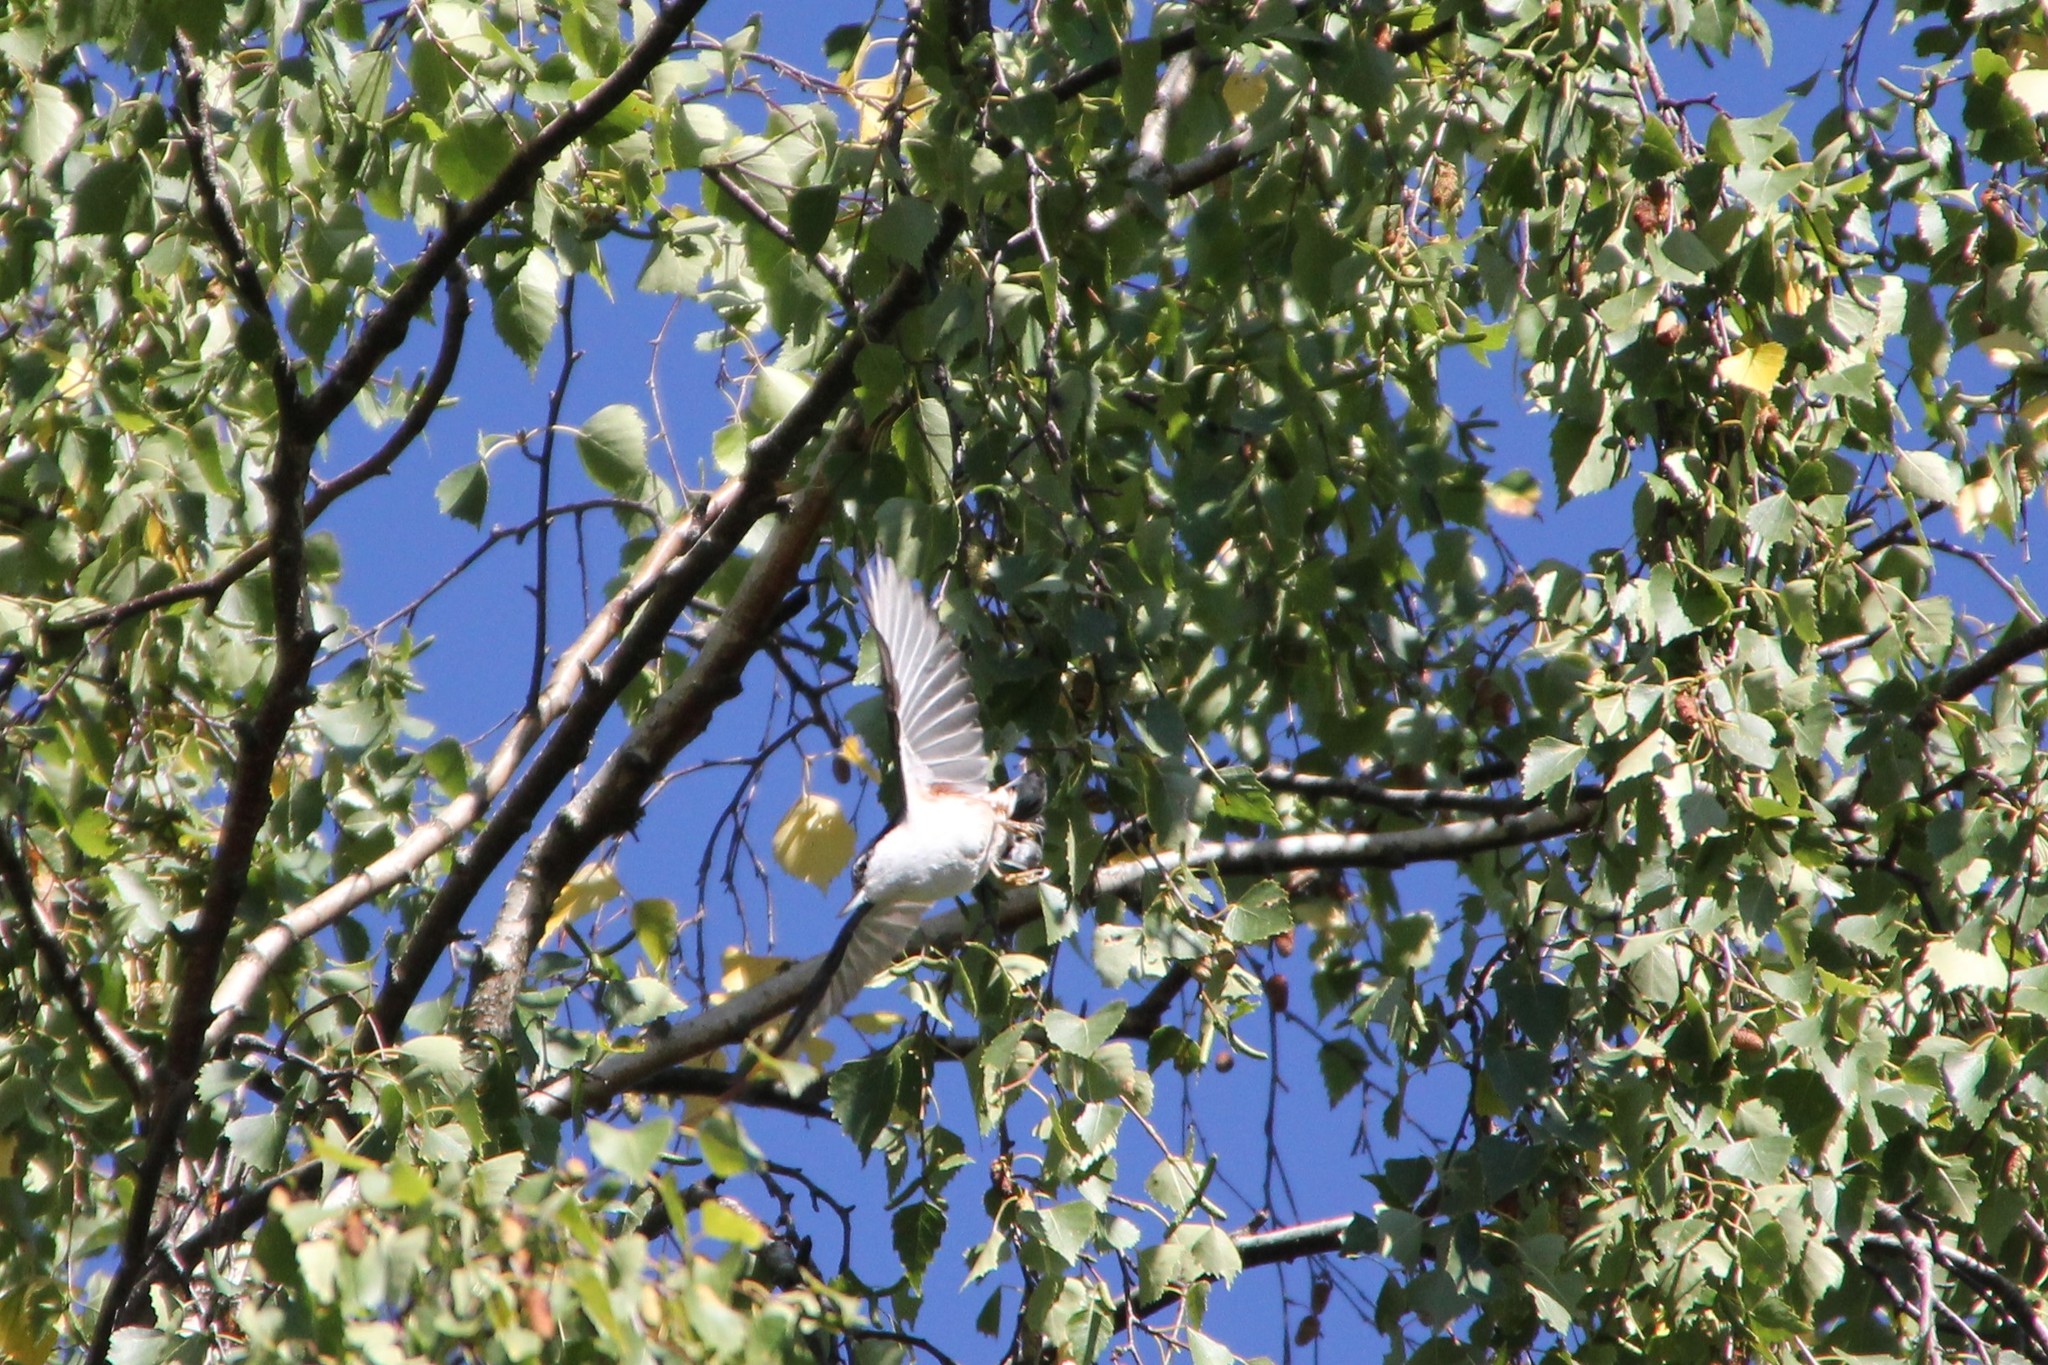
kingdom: Animalia
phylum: Chordata
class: Aves
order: Passeriformes
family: Sittidae
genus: Sitta
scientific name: Sitta europaea
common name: Eurasian nuthatch
